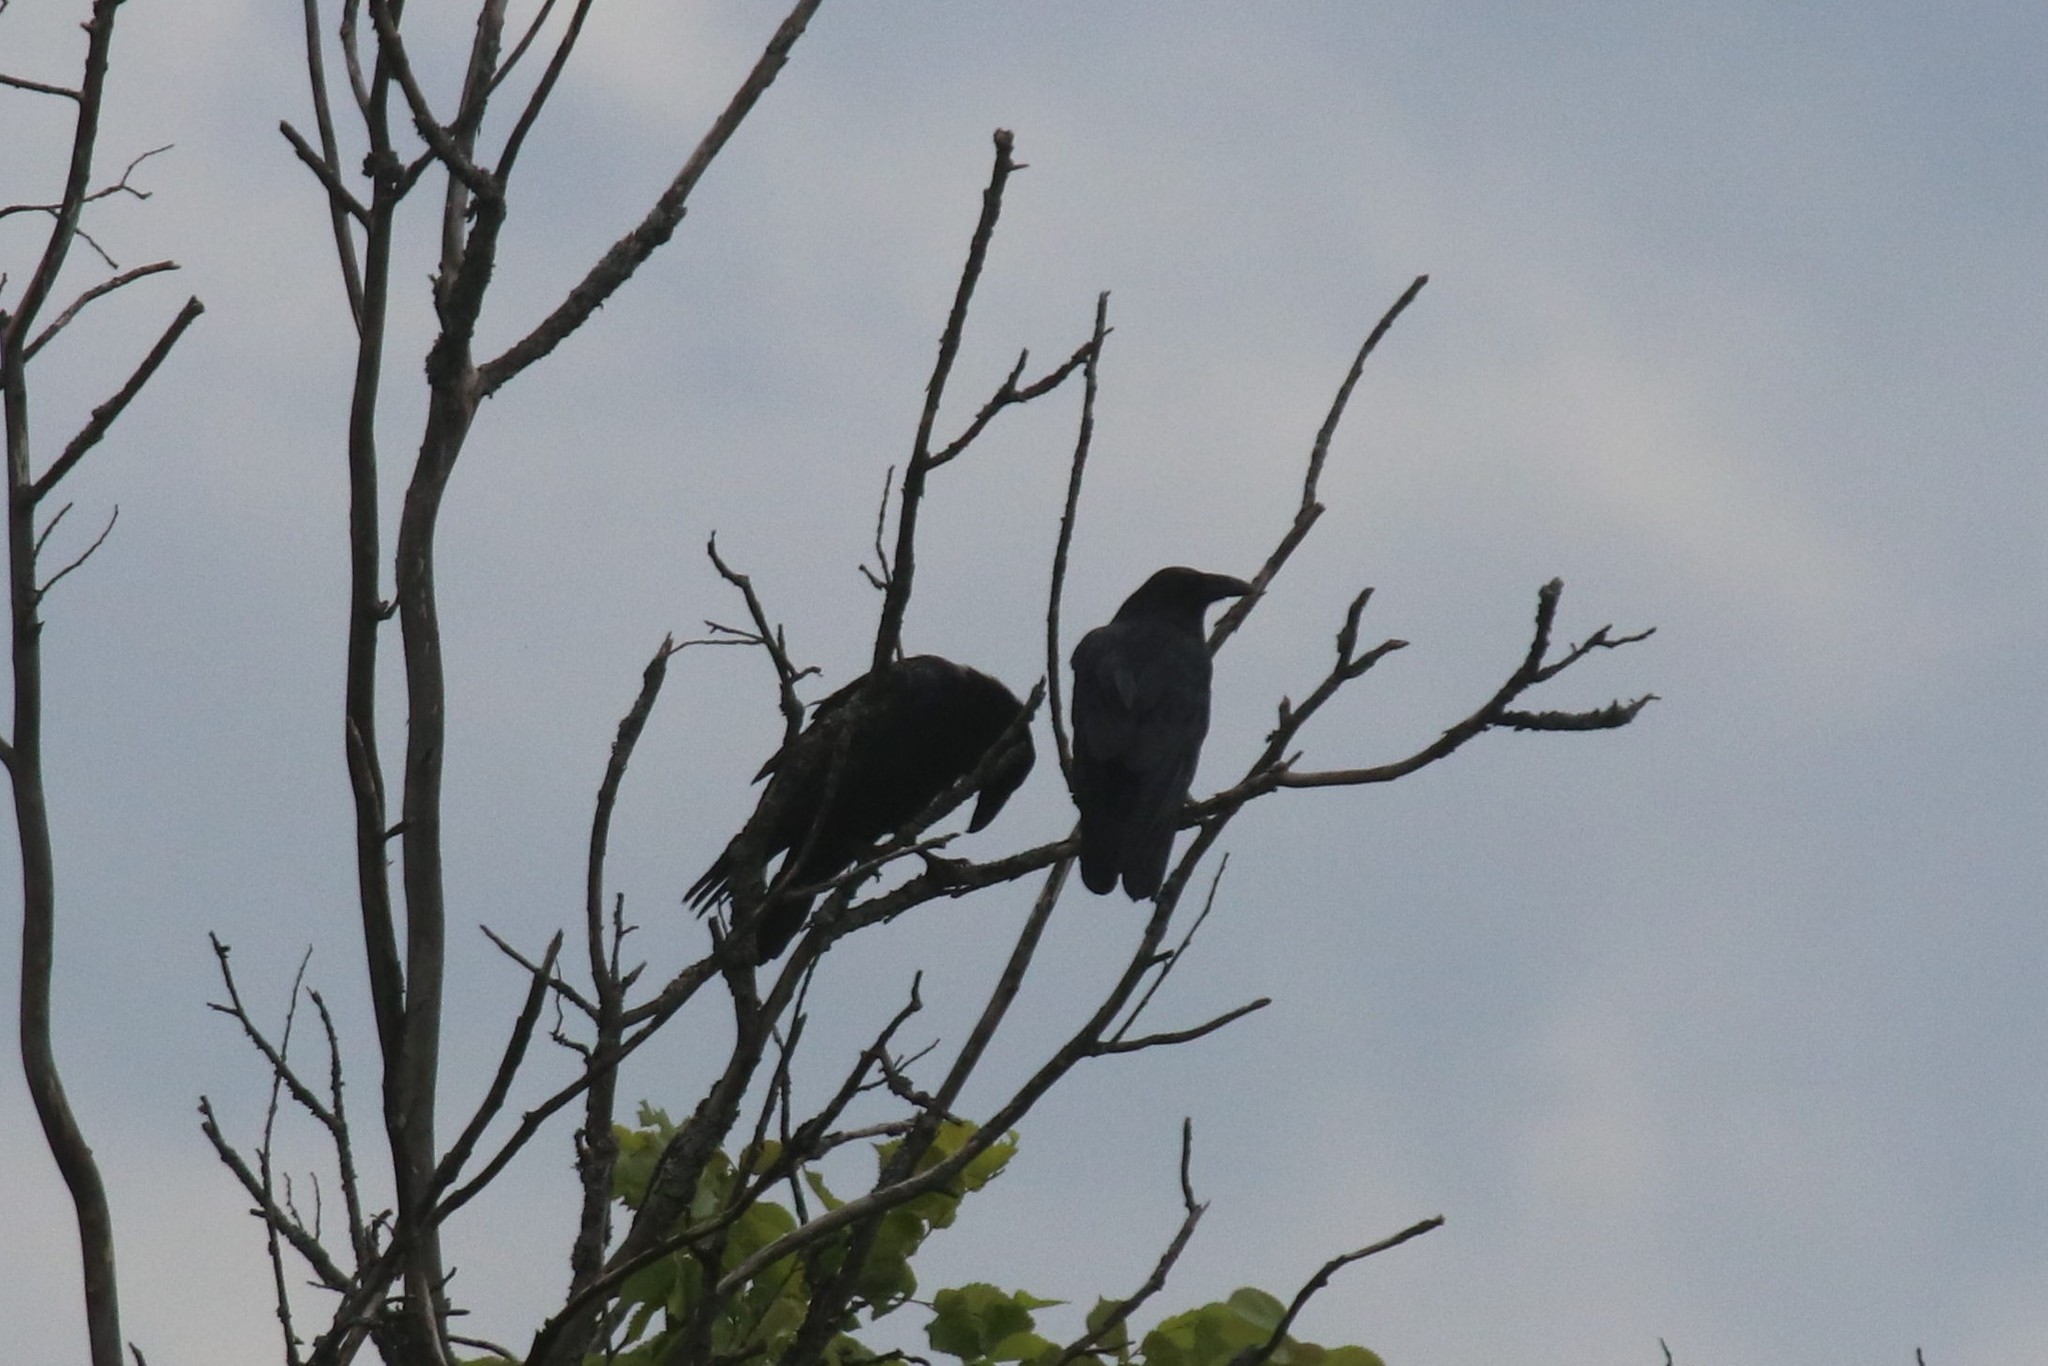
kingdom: Animalia
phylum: Chordata
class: Aves
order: Passeriformes
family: Corvidae
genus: Corvus
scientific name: Corvus corax
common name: Common raven
